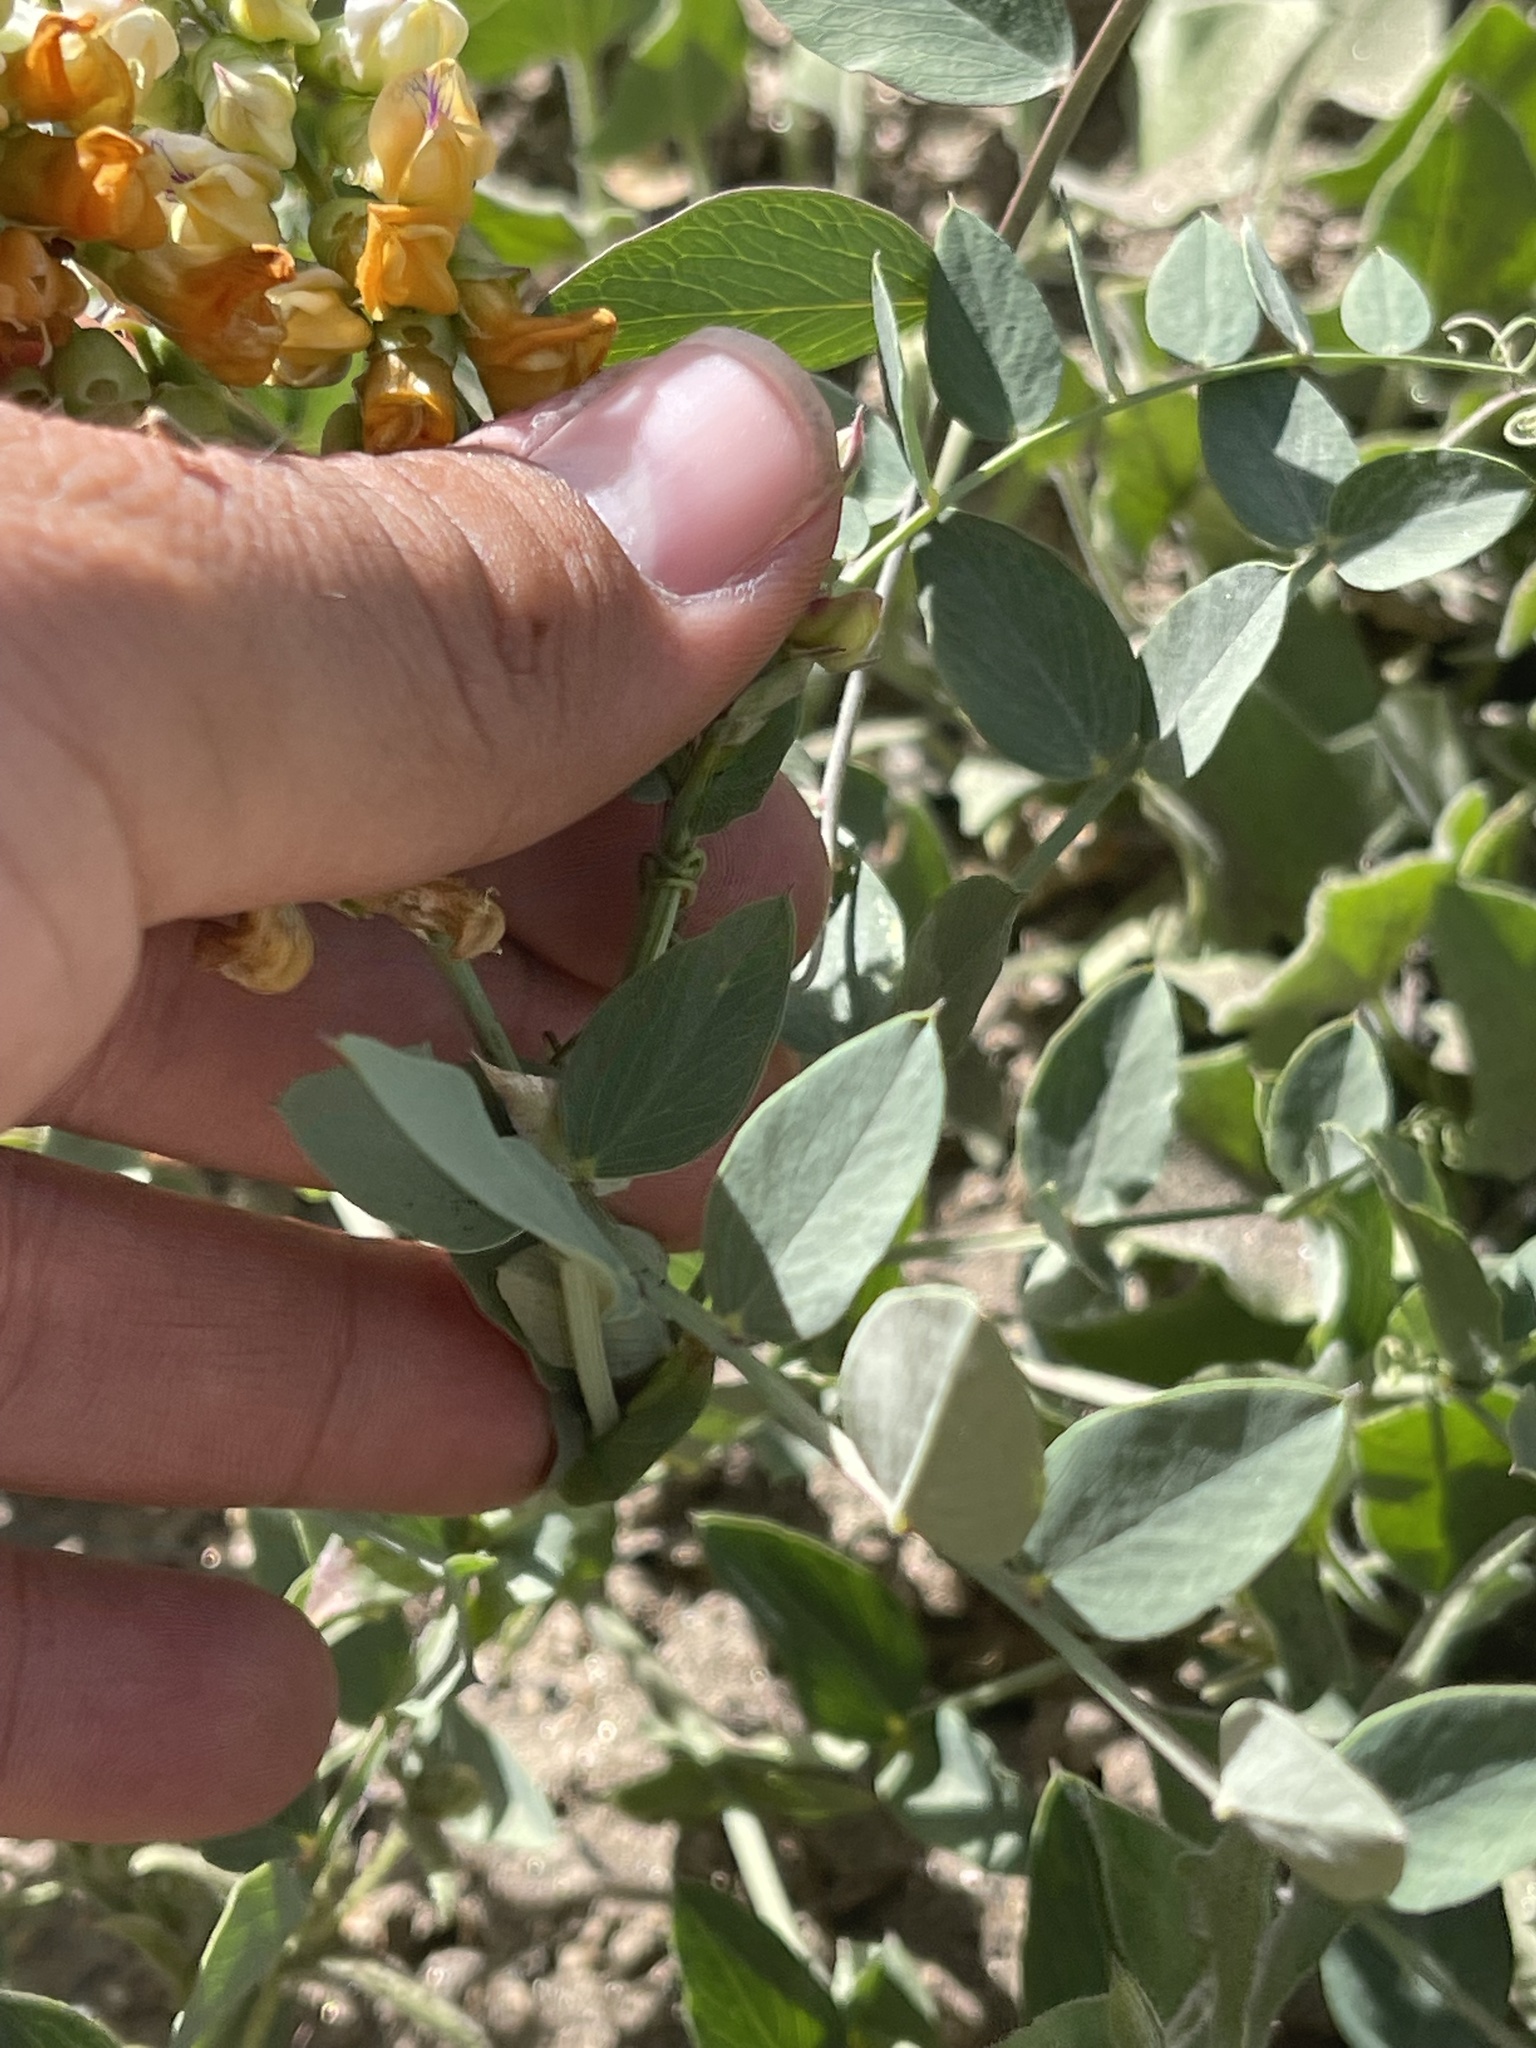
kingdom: Plantae
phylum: Tracheophyta
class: Magnoliopsida
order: Fabales
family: Fabaceae
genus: Lathyrus
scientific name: Lathyrus sulphureus
